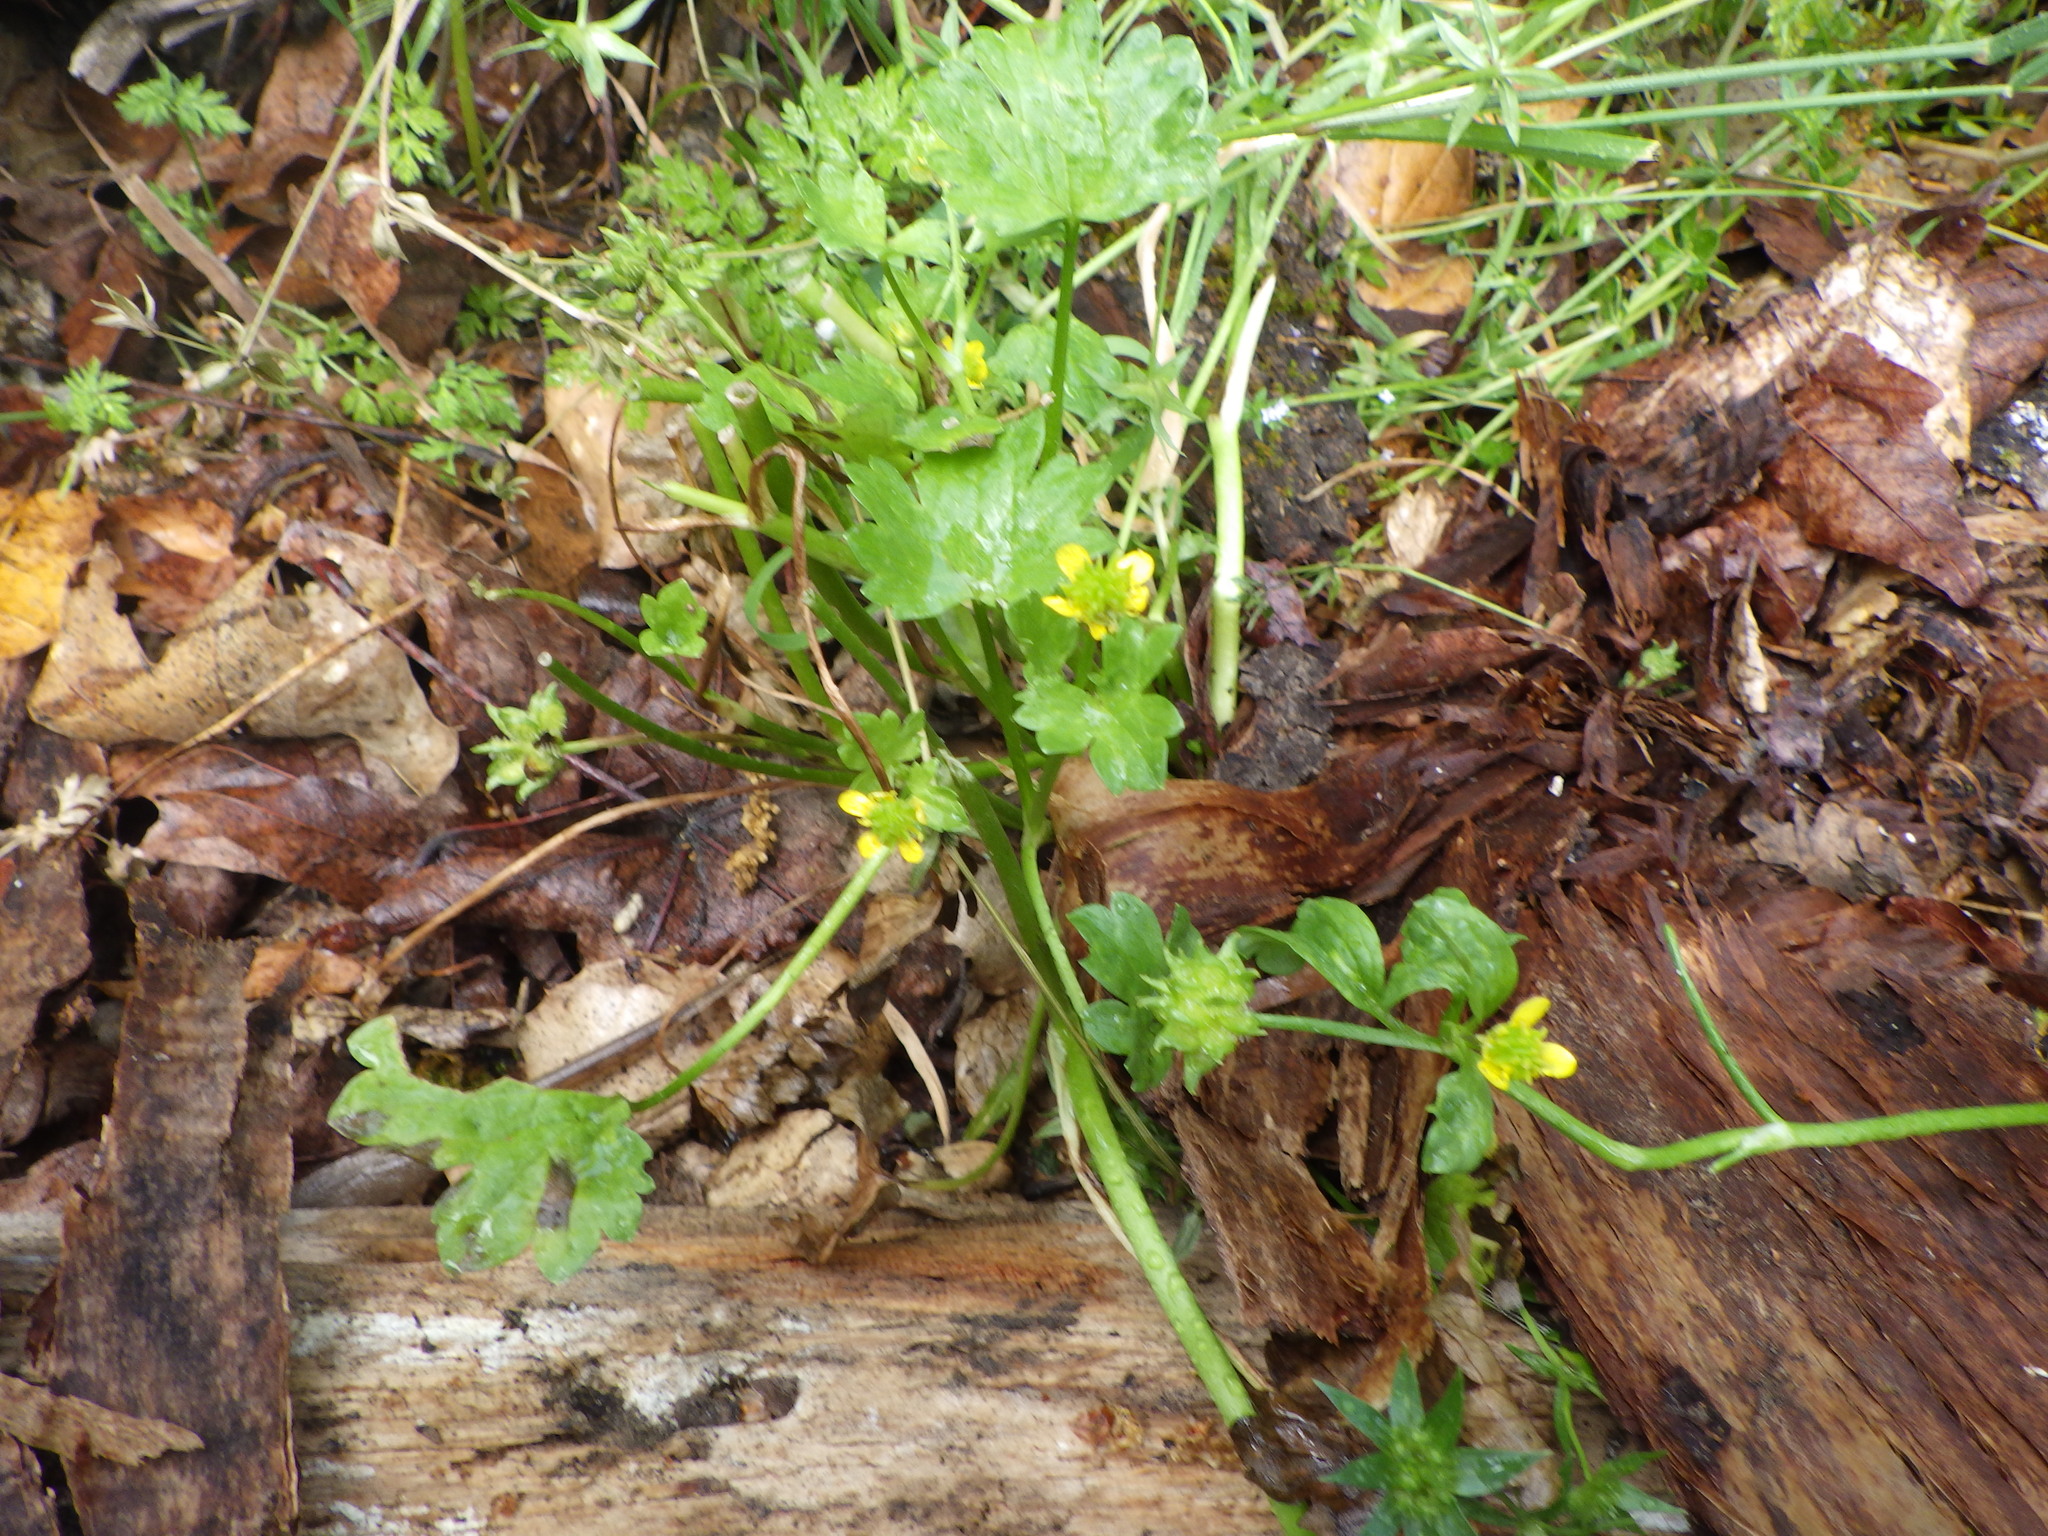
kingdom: Plantae
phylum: Tracheophyta
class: Magnoliopsida
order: Ranunculales
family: Ranunculaceae
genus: Ranunculus
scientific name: Ranunculus muricatus
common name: Rough-fruited buttercup
